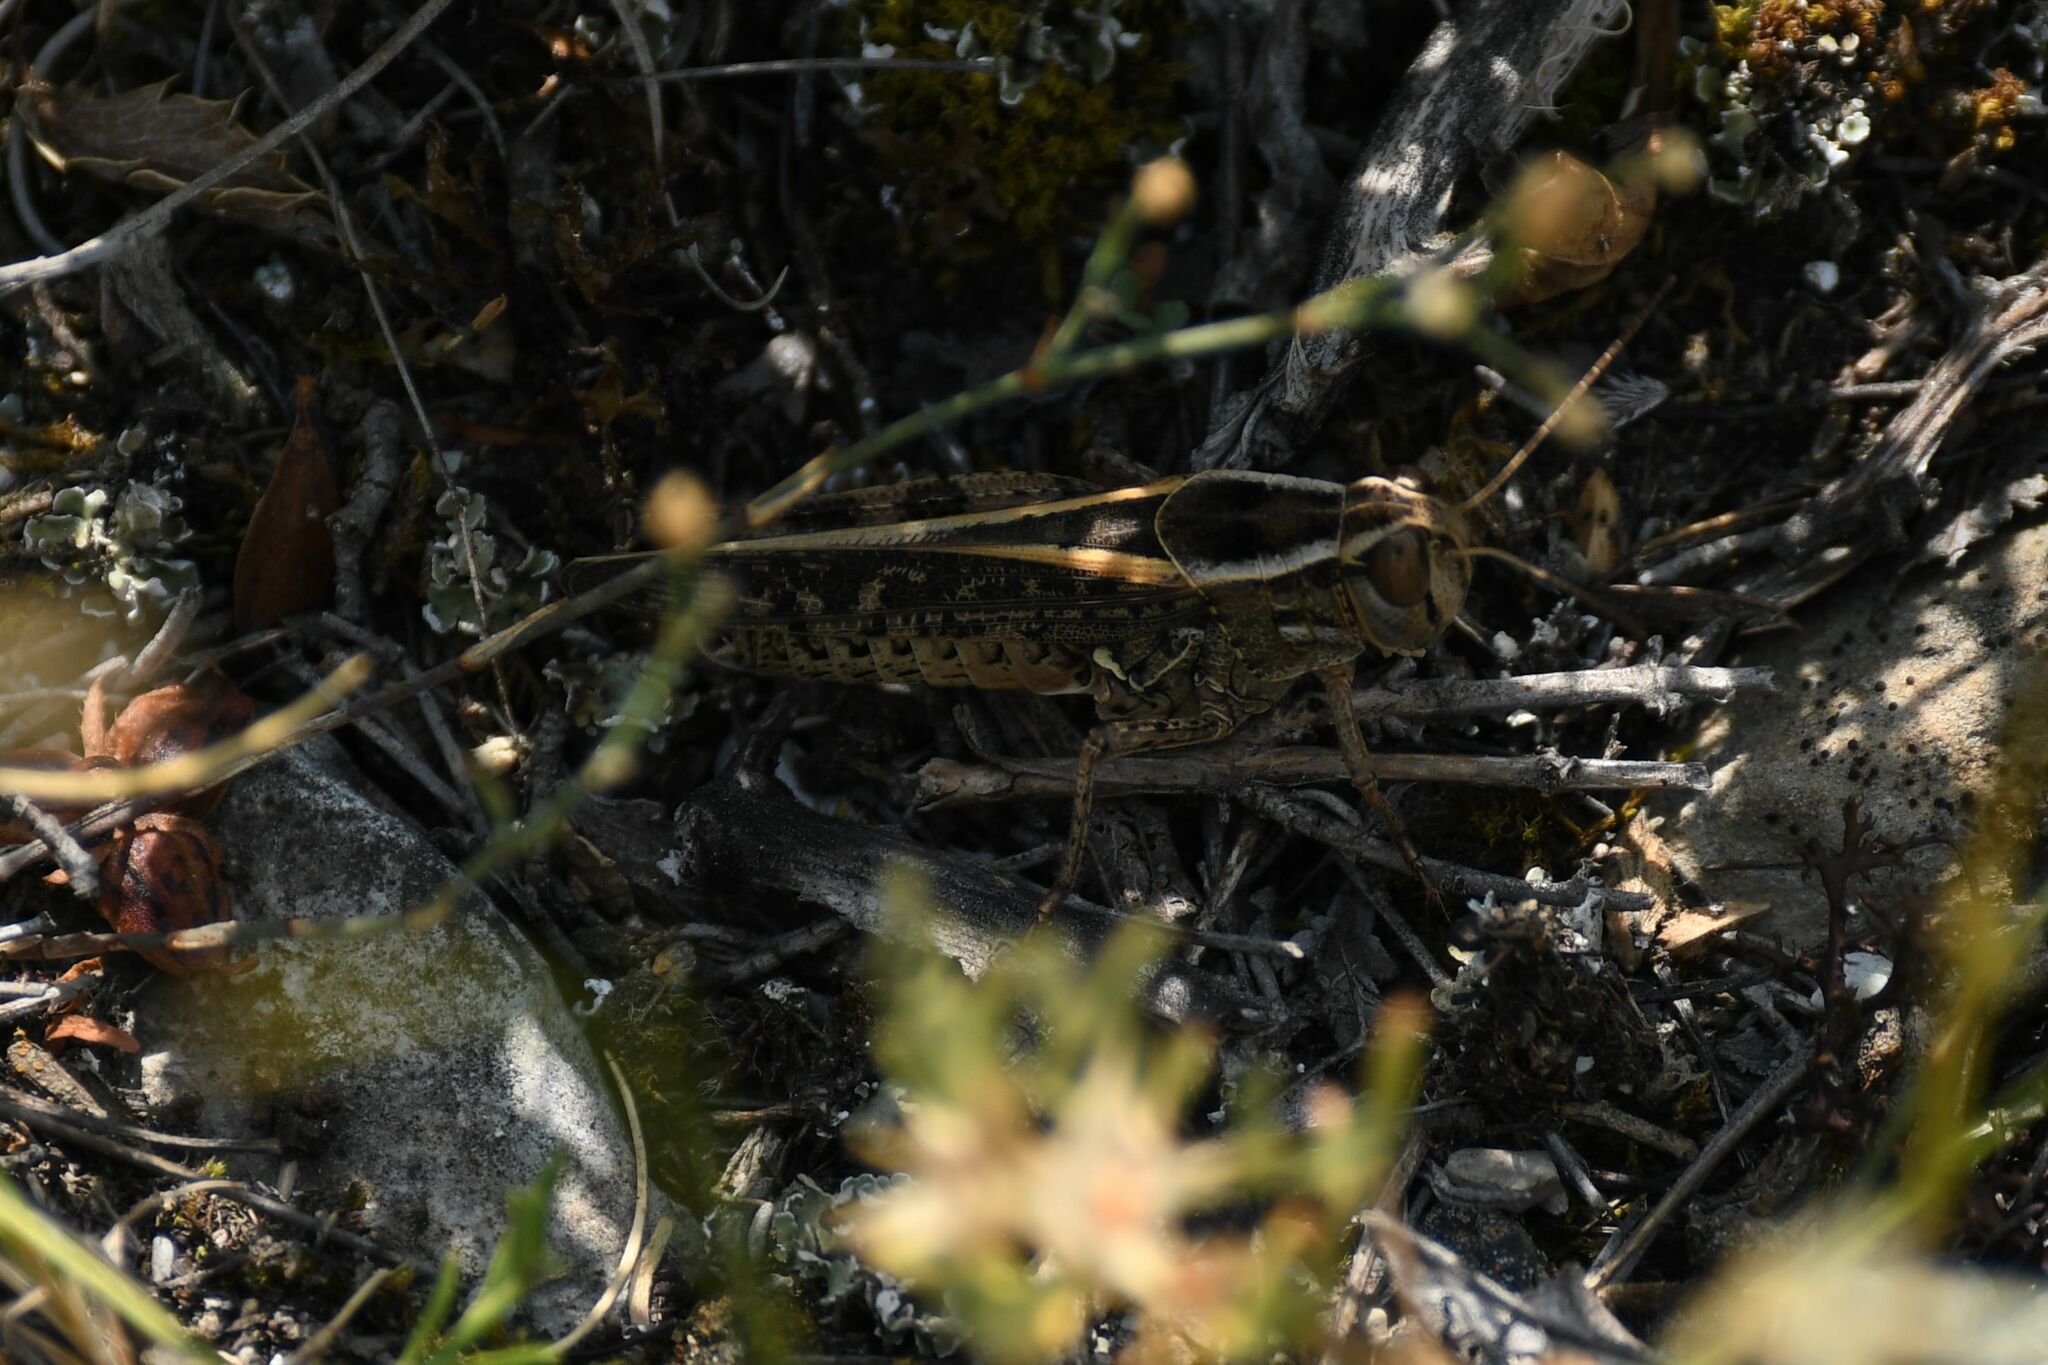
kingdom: Animalia
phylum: Arthropoda
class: Insecta
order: Orthoptera
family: Acrididae
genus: Calliptamus
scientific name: Calliptamus italicus
